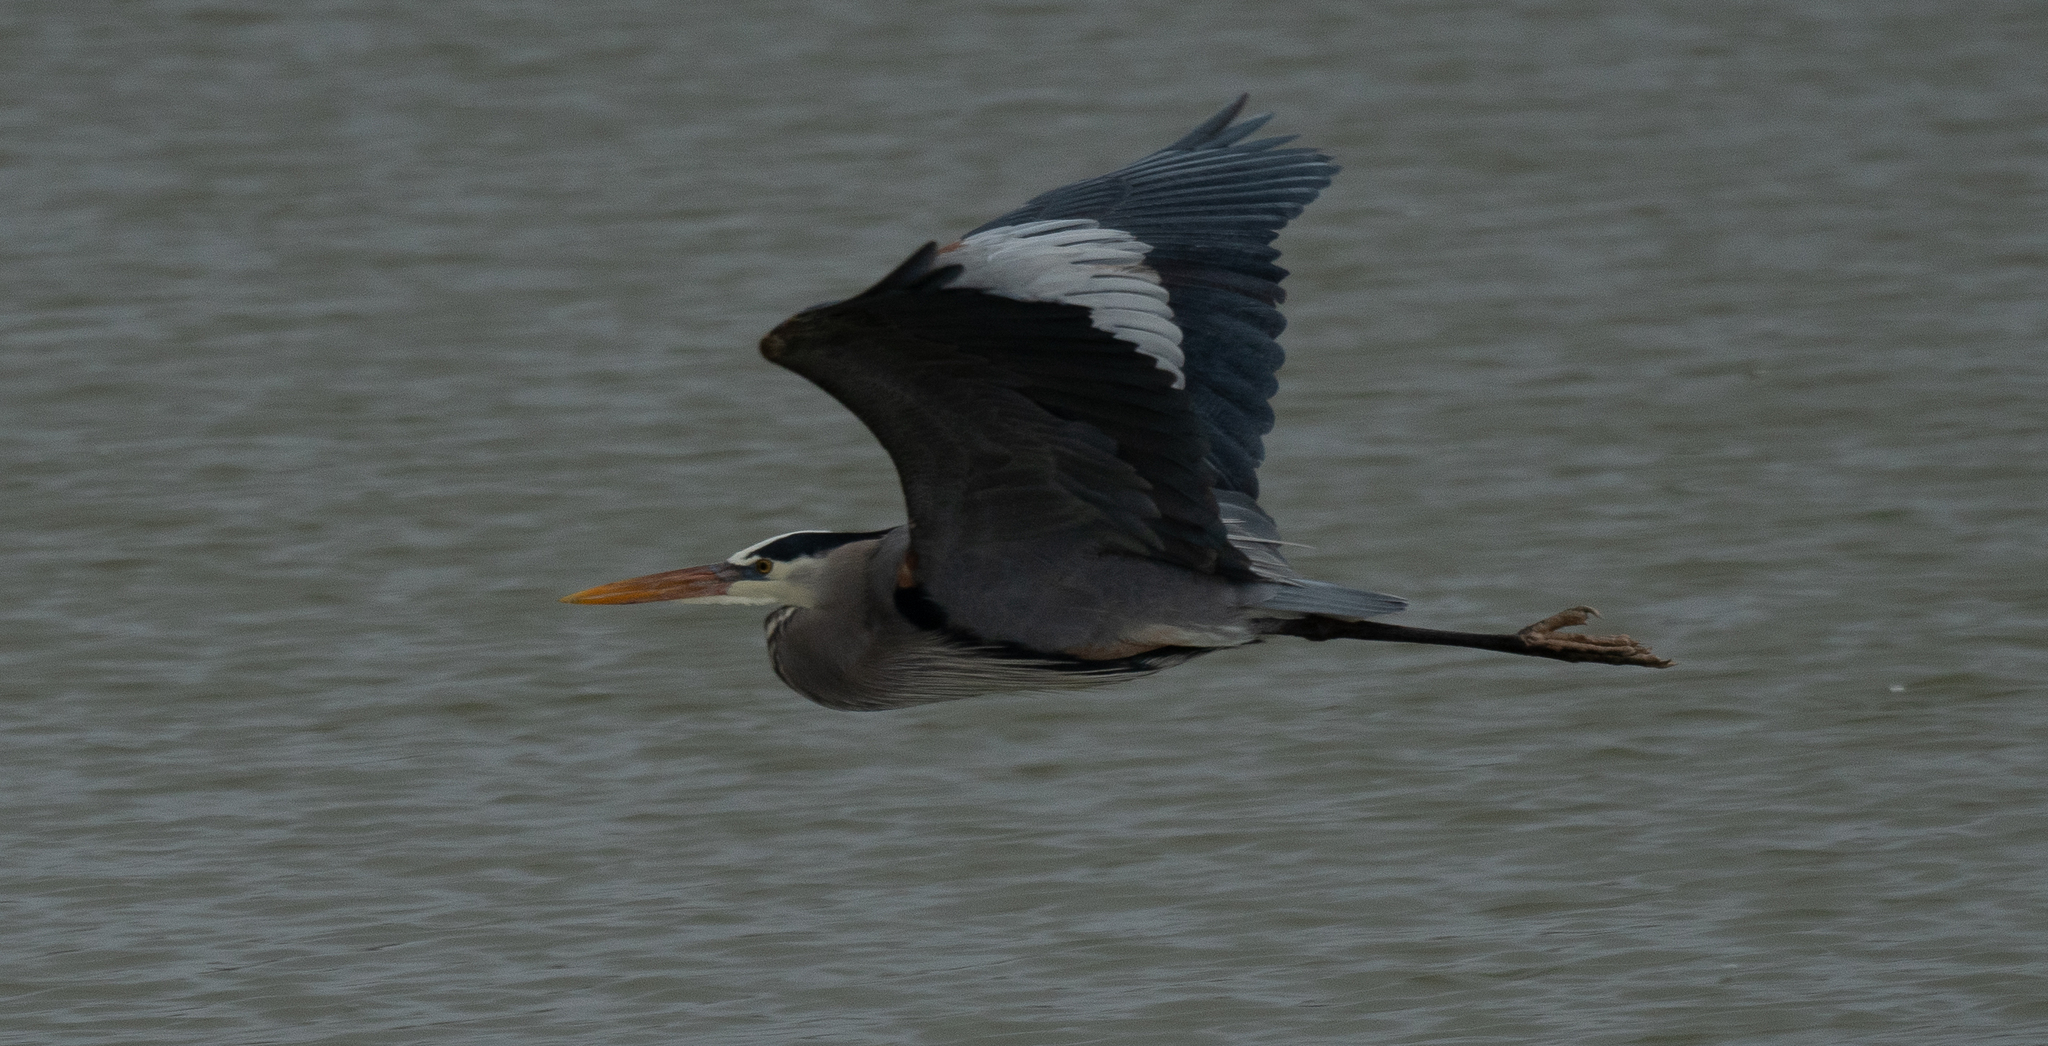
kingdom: Animalia
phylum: Chordata
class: Aves
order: Pelecaniformes
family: Ardeidae
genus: Ardea
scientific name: Ardea herodias
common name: Great blue heron
